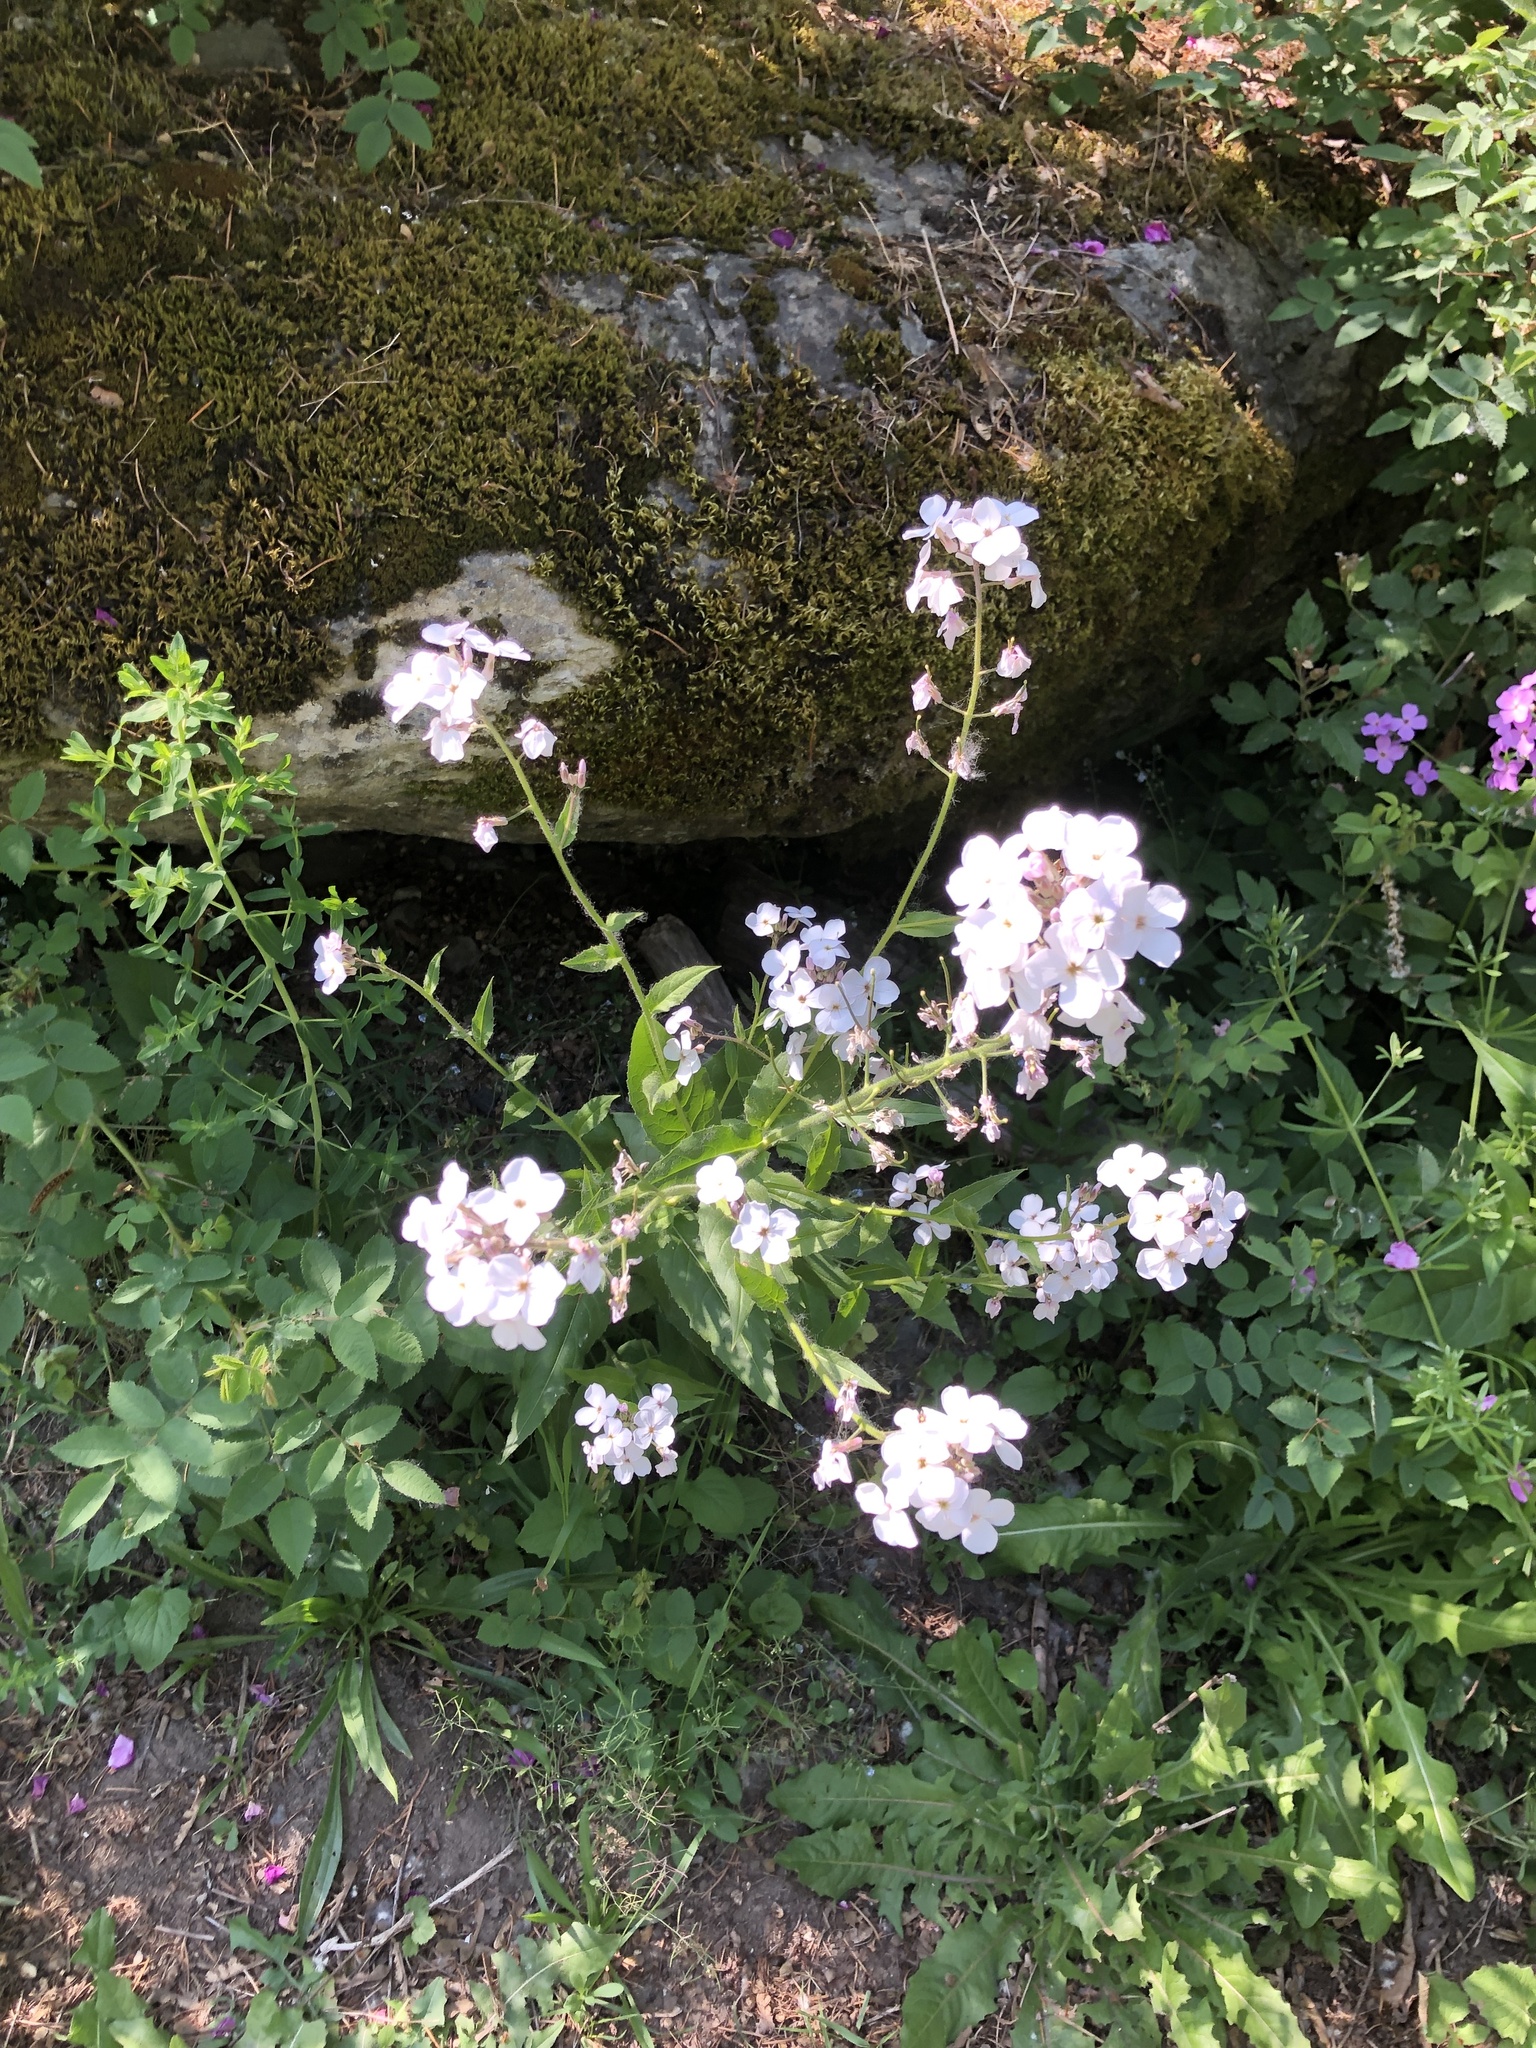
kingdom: Plantae
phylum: Tracheophyta
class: Magnoliopsida
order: Brassicales
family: Brassicaceae
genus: Hesperis
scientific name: Hesperis matronalis
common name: Dame's-violet
